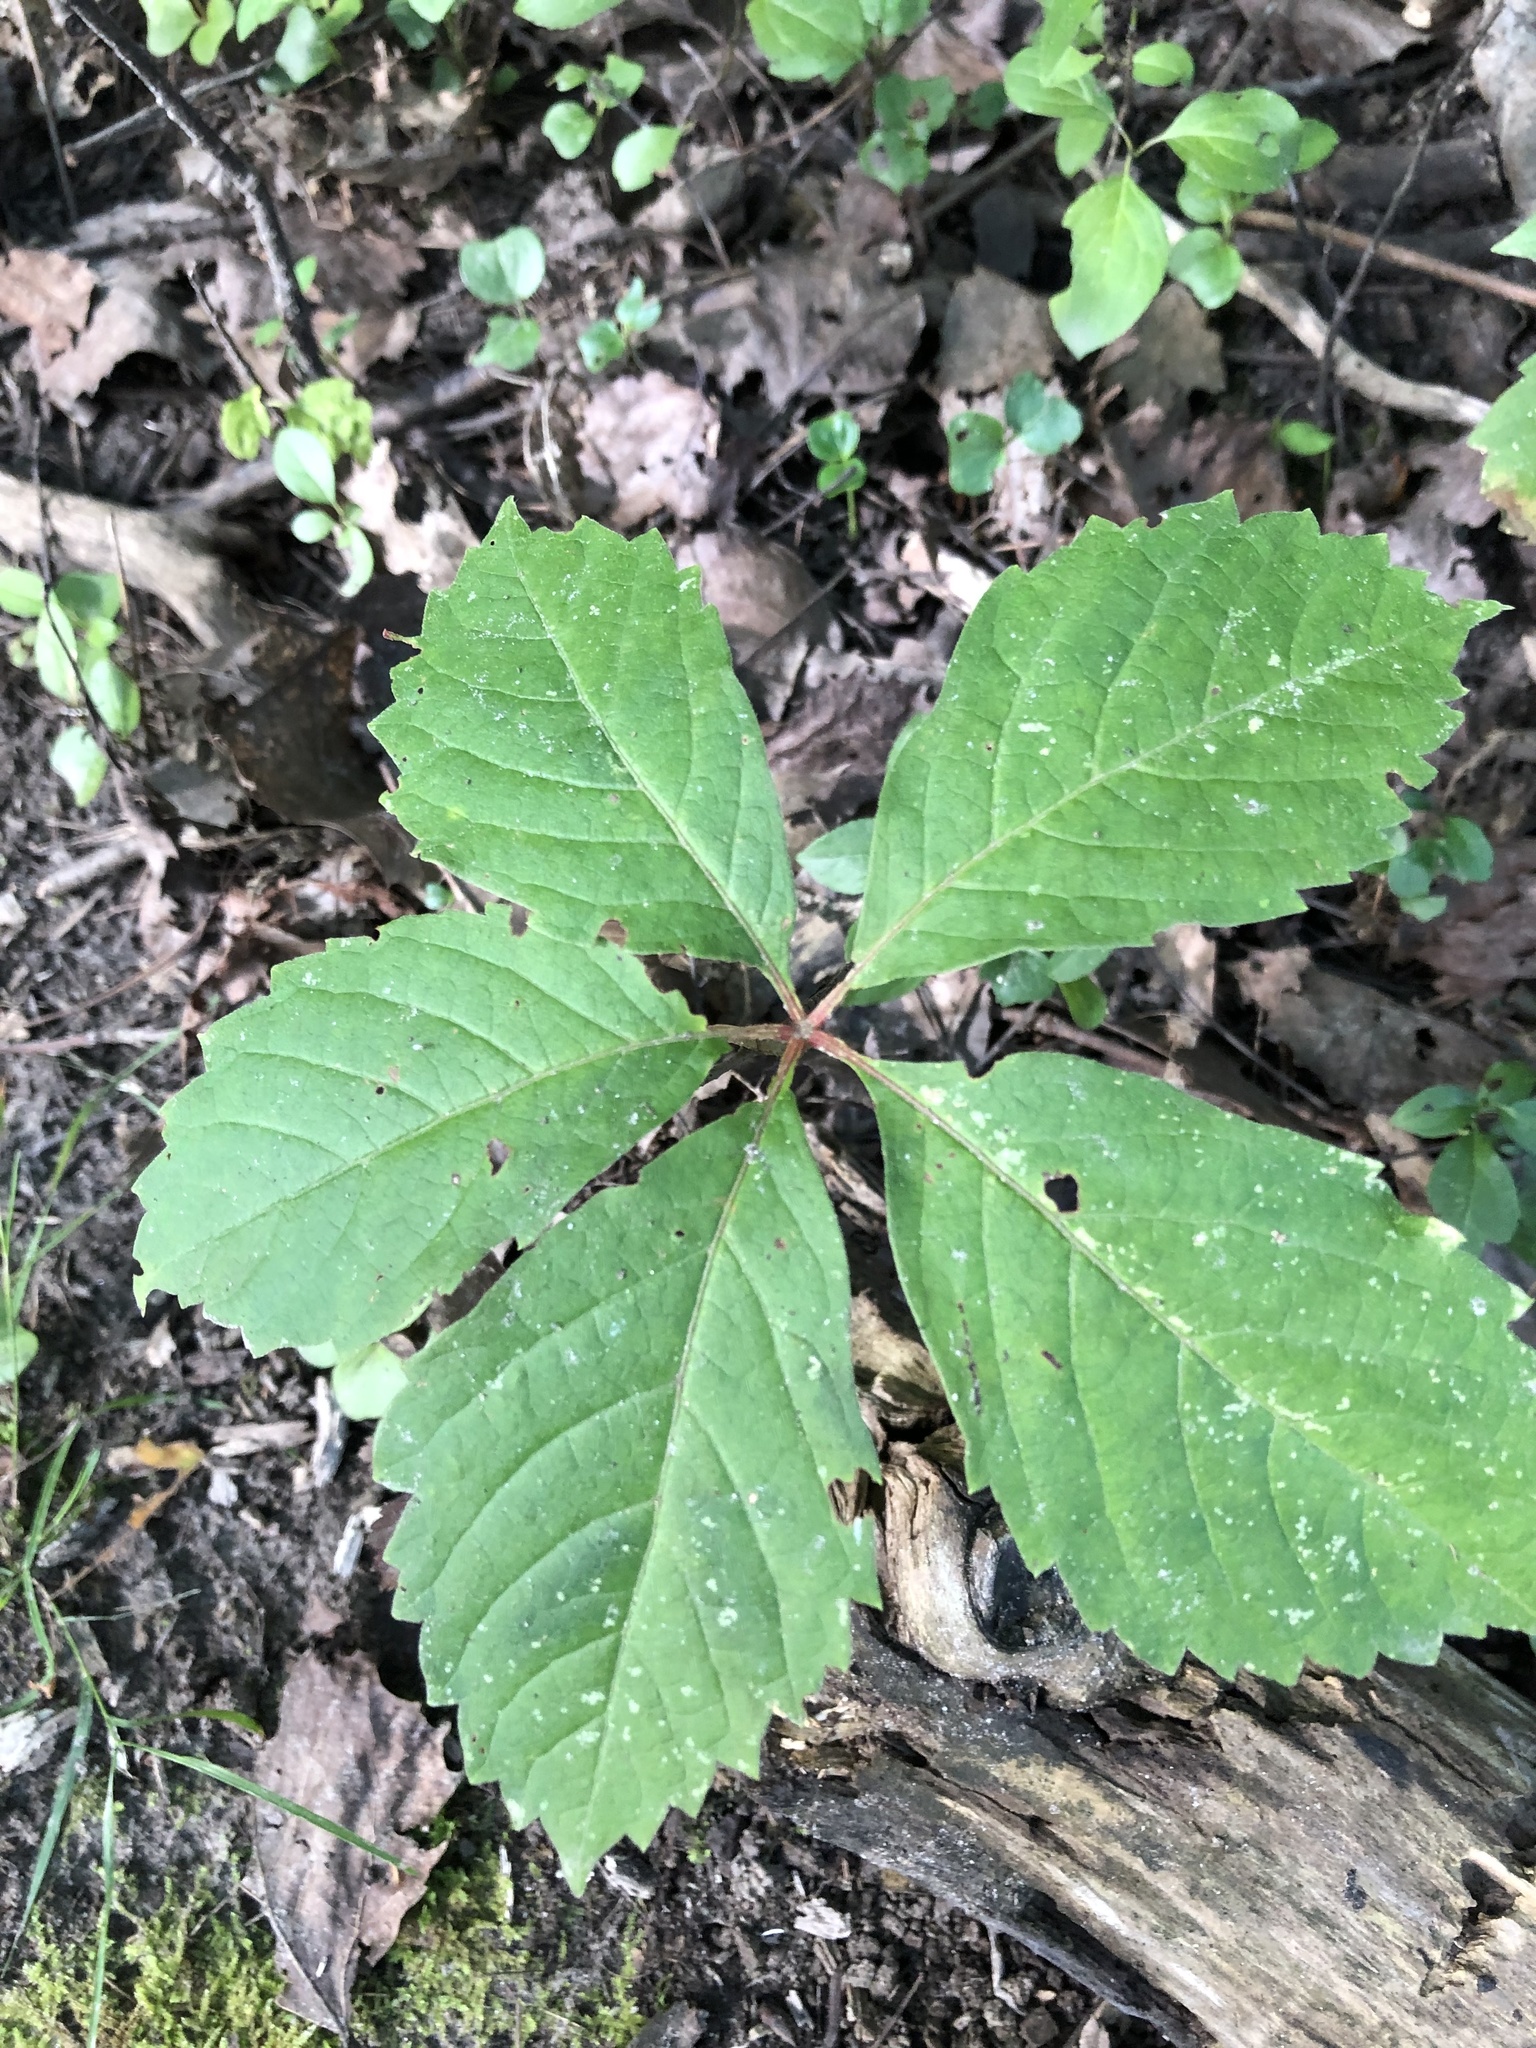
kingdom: Plantae
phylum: Tracheophyta
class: Magnoliopsida
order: Vitales
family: Vitaceae
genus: Parthenocissus
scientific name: Parthenocissus quinquefolia
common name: Virginia-creeper
